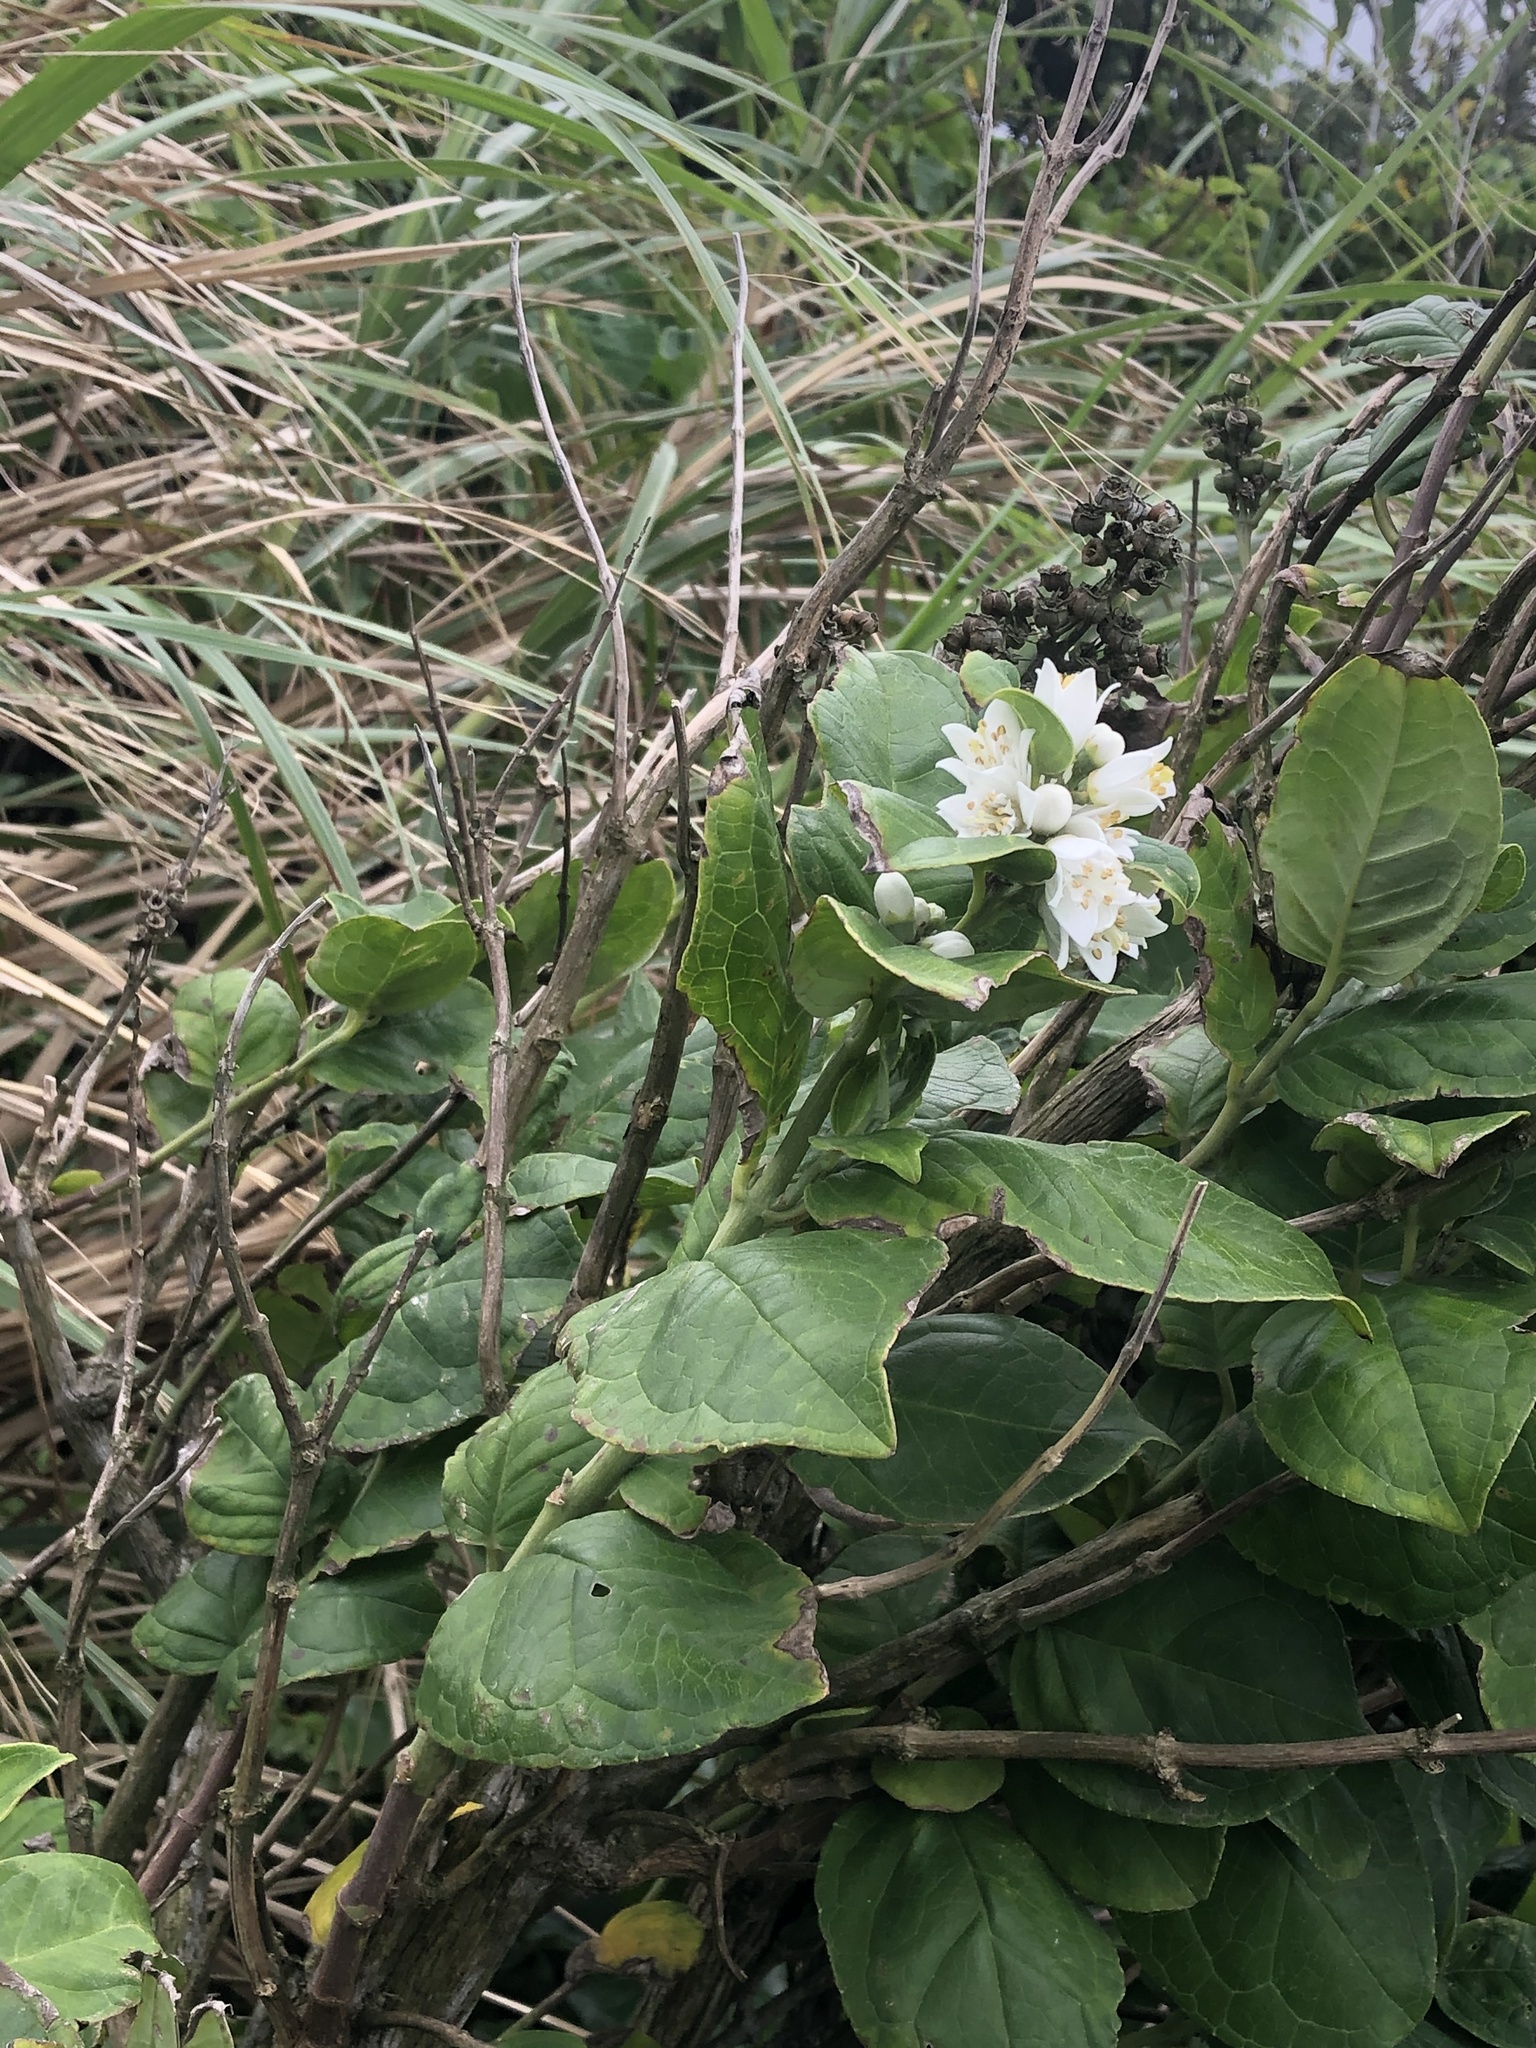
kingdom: Plantae
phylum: Tracheophyta
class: Magnoliopsida
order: Cornales
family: Hydrangeaceae
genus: Deutzia
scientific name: Deutzia pulchra
